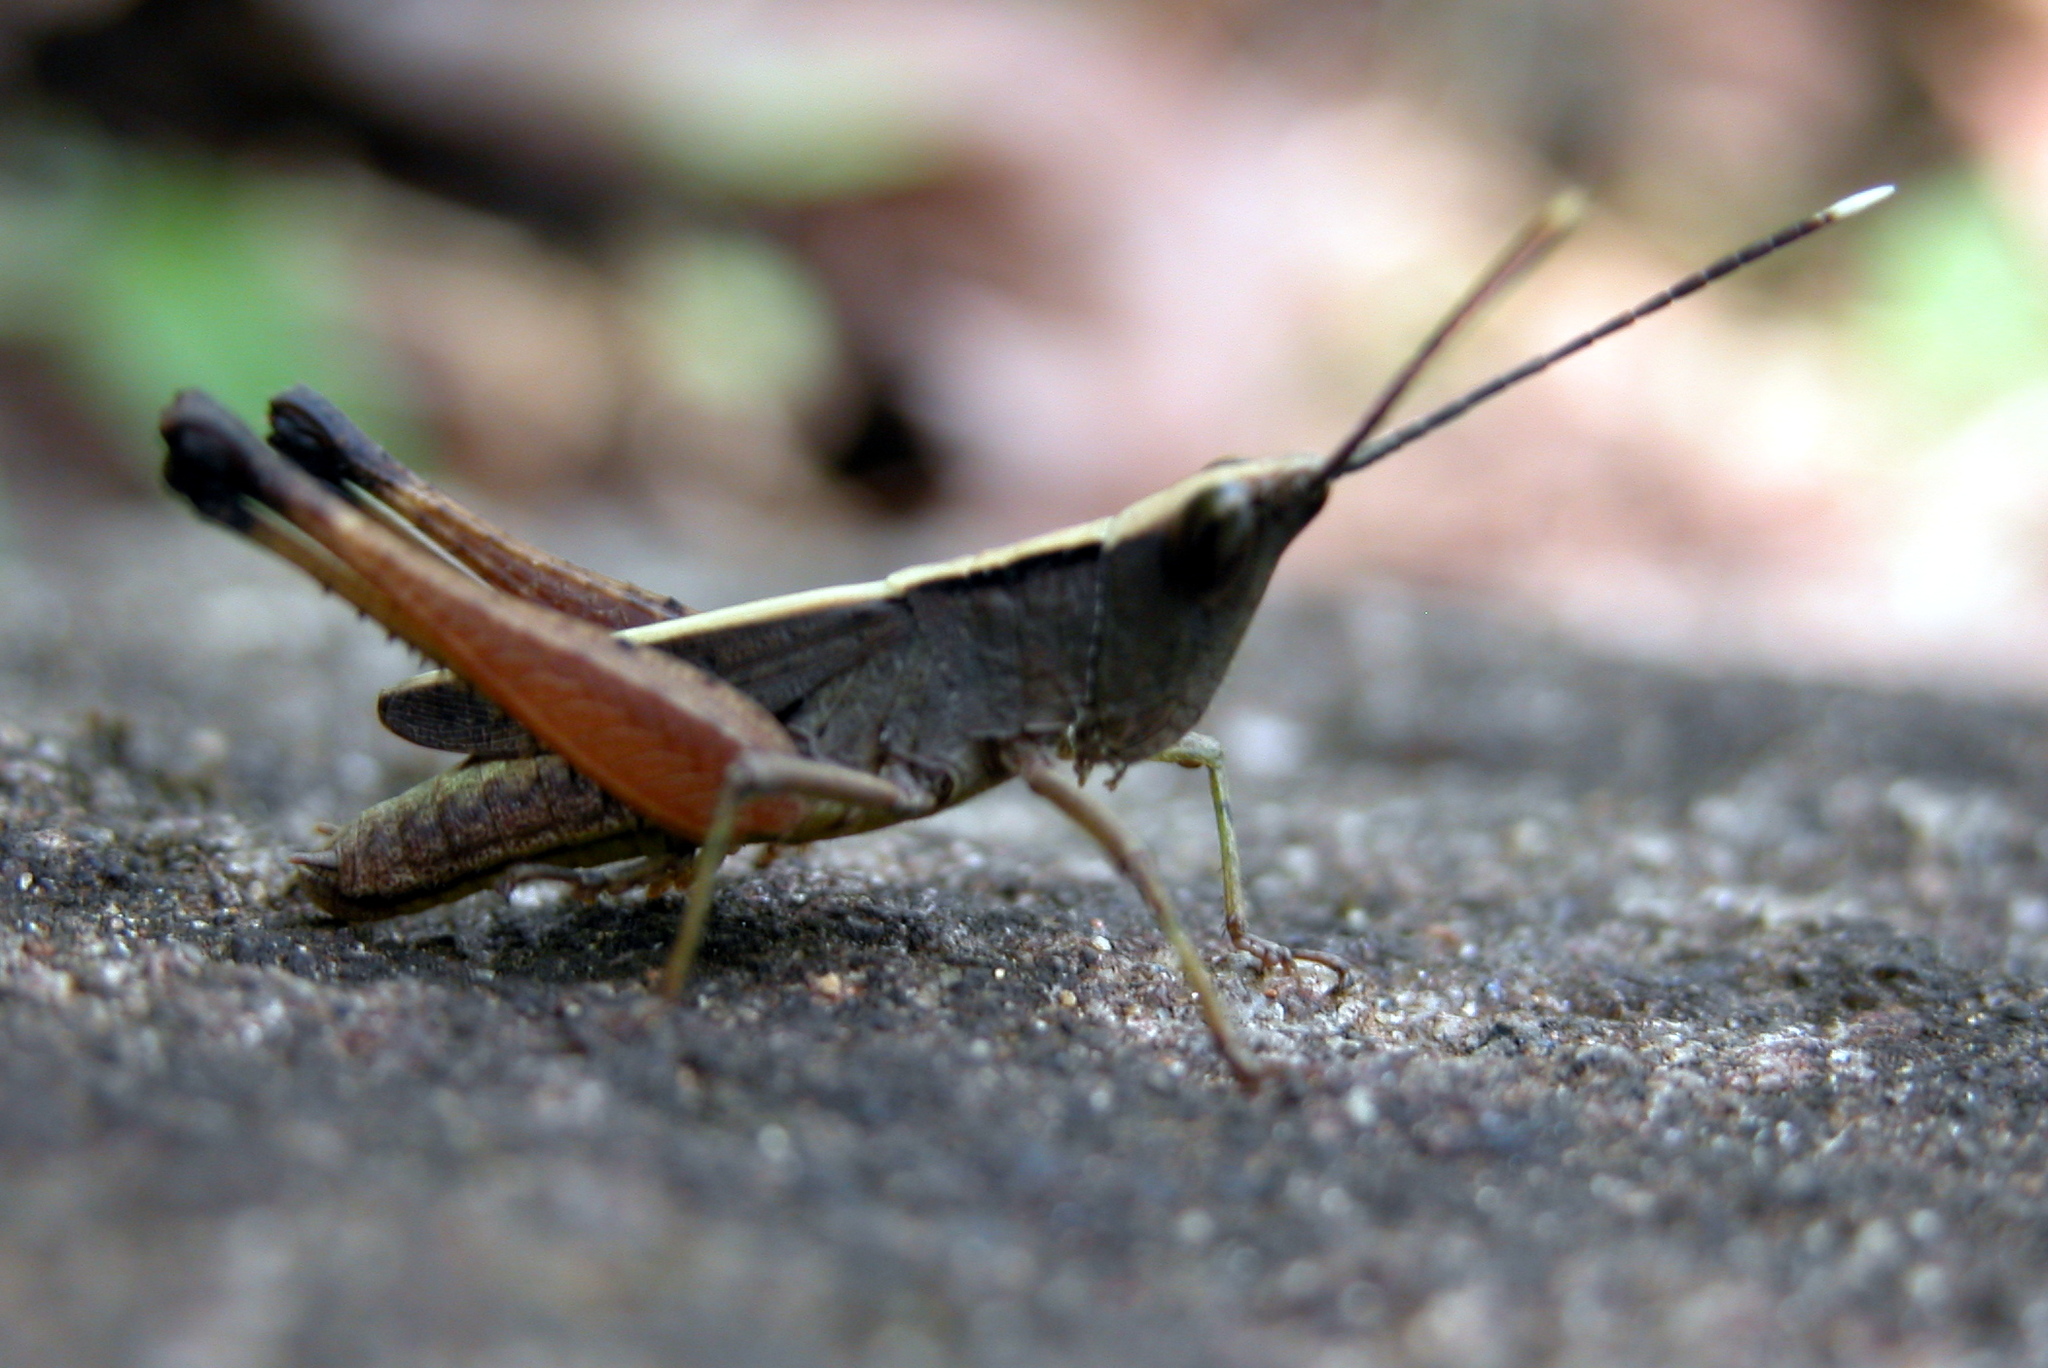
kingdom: Animalia
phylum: Arthropoda
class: Insecta
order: Orthoptera
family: Acrididae
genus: Phlaeoba
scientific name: Phlaeoba antennata
